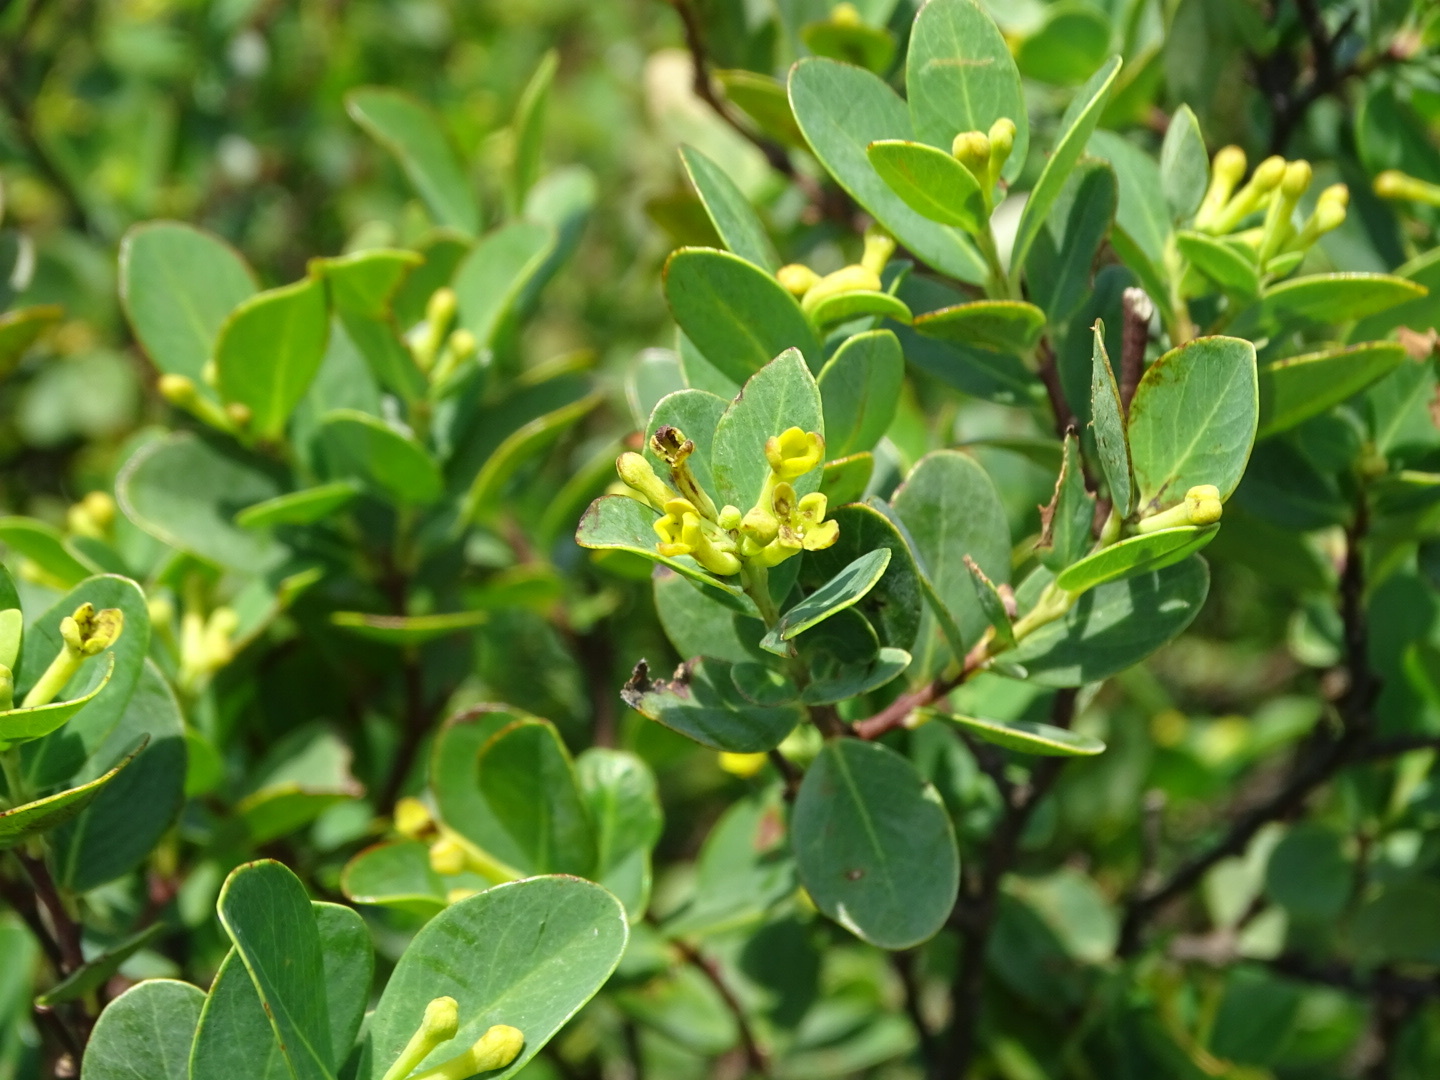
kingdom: Plantae
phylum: Tracheophyta
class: Magnoliopsida
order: Malvales
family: Thymelaeaceae
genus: Wikstroemia
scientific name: Wikstroemia indica
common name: Tiebush
